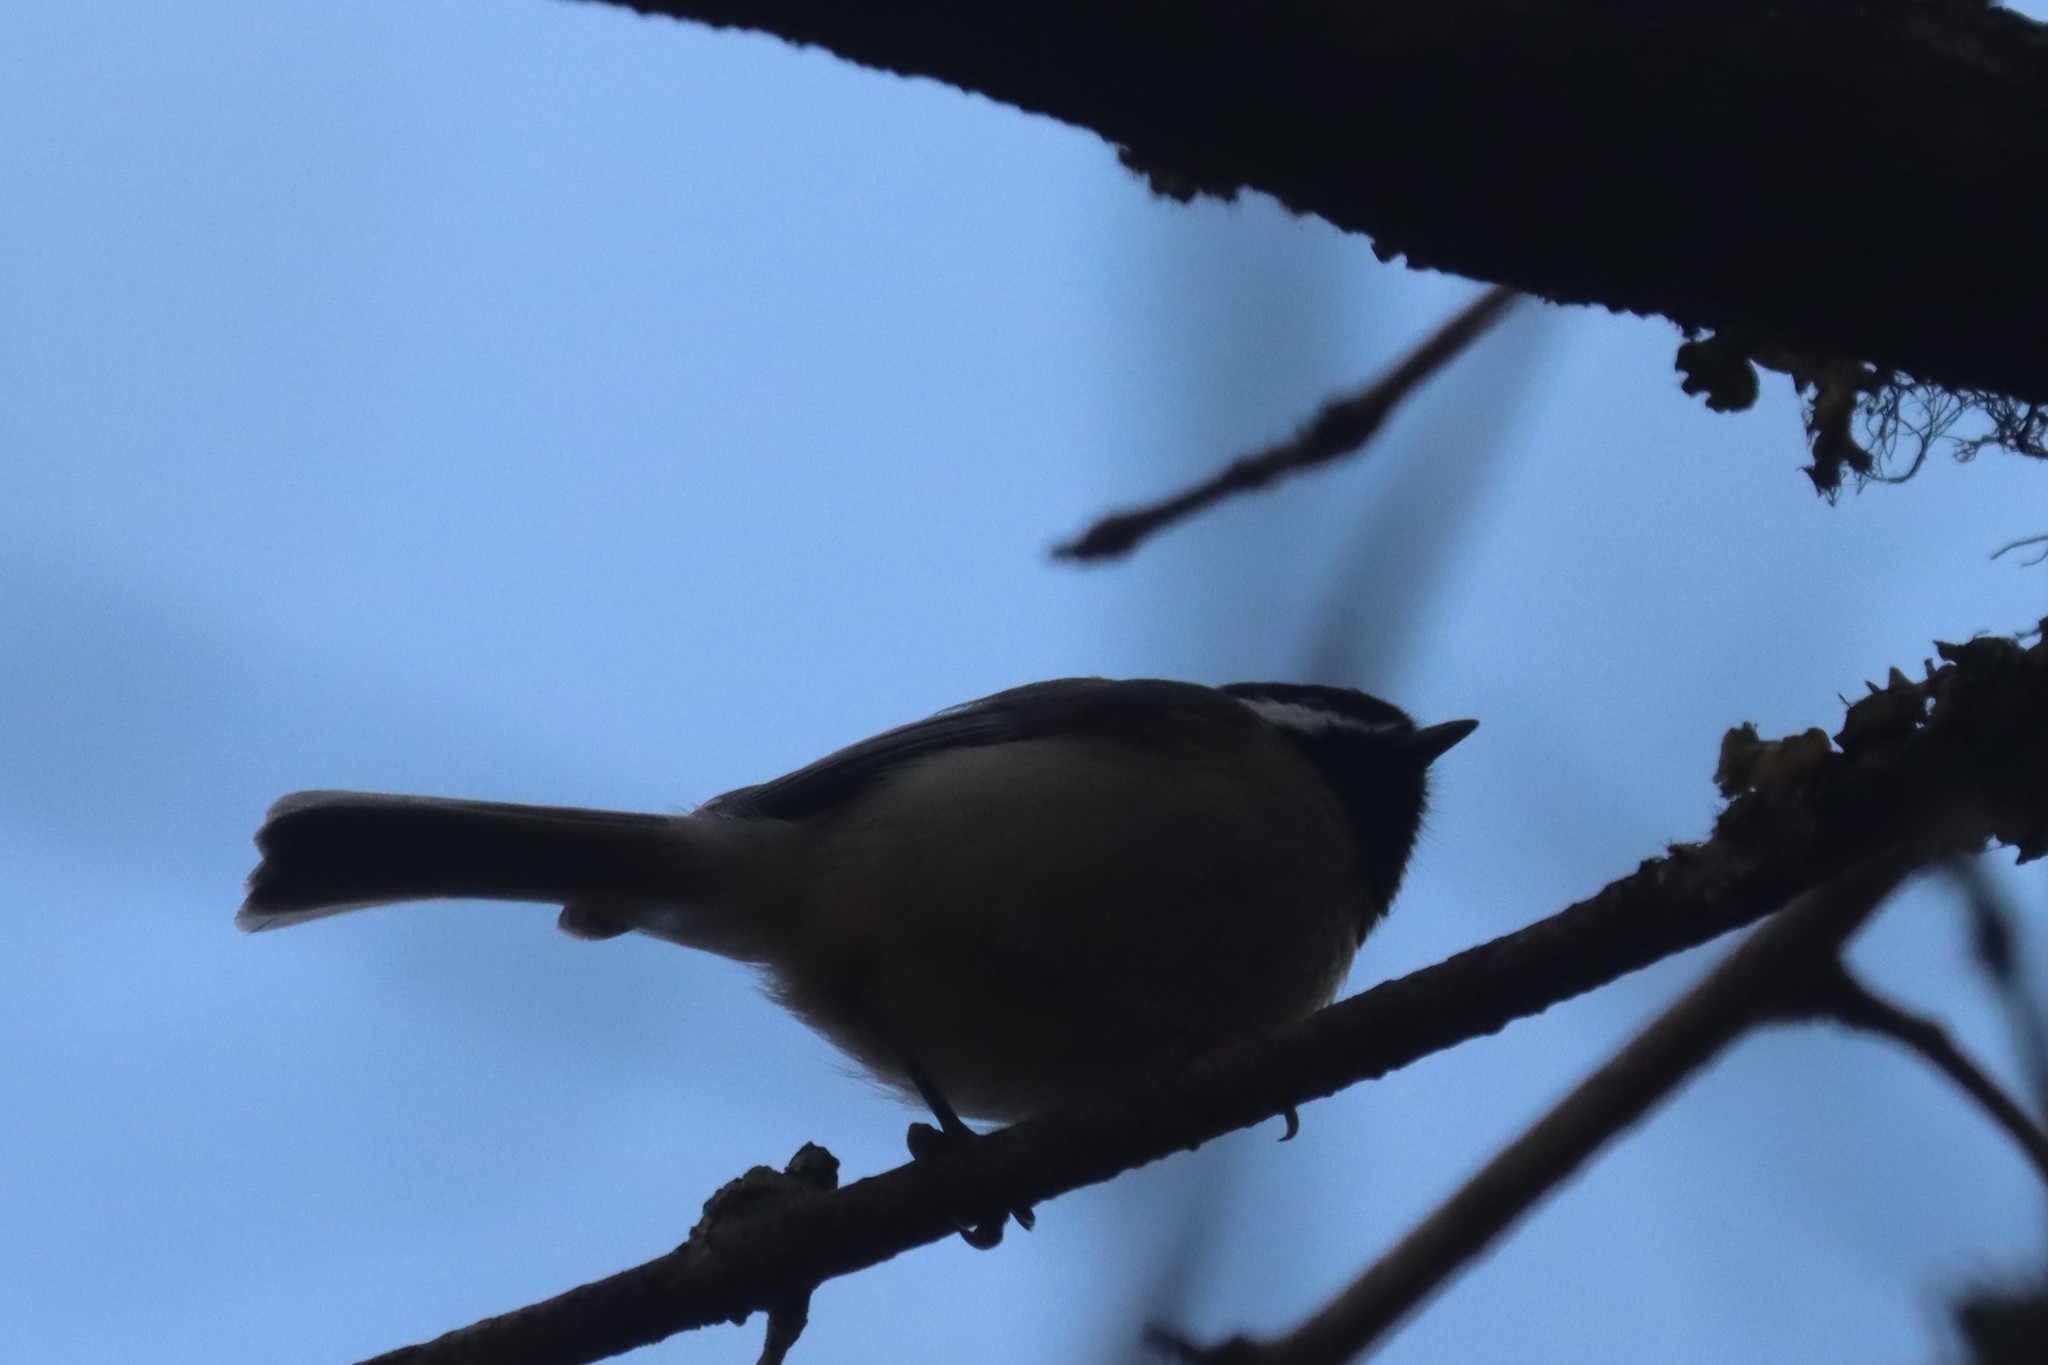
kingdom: Animalia
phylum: Chordata
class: Aves
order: Passeriformes
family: Paridae
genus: Poecile
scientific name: Poecile carolinensis
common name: Carolina chickadee
